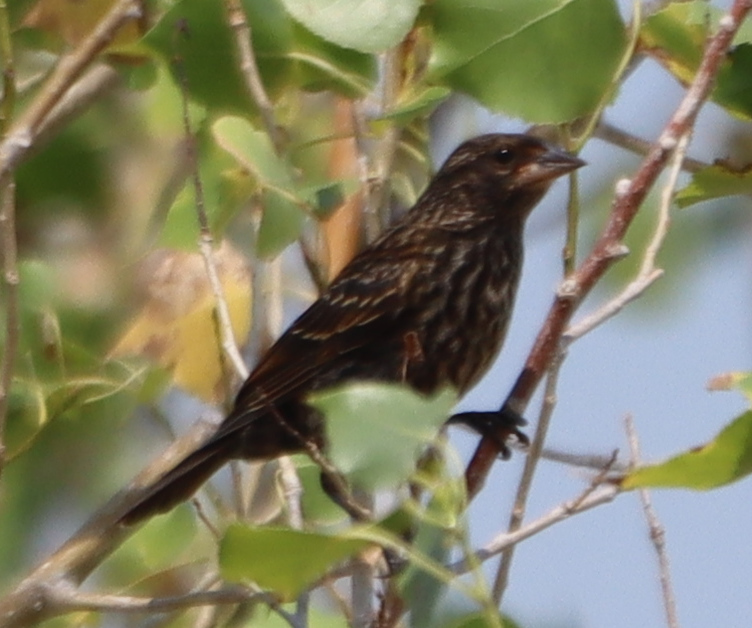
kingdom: Animalia
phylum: Chordata
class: Aves
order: Passeriformes
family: Icteridae
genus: Agelaius
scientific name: Agelaius phoeniceus
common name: Red-winged blackbird
